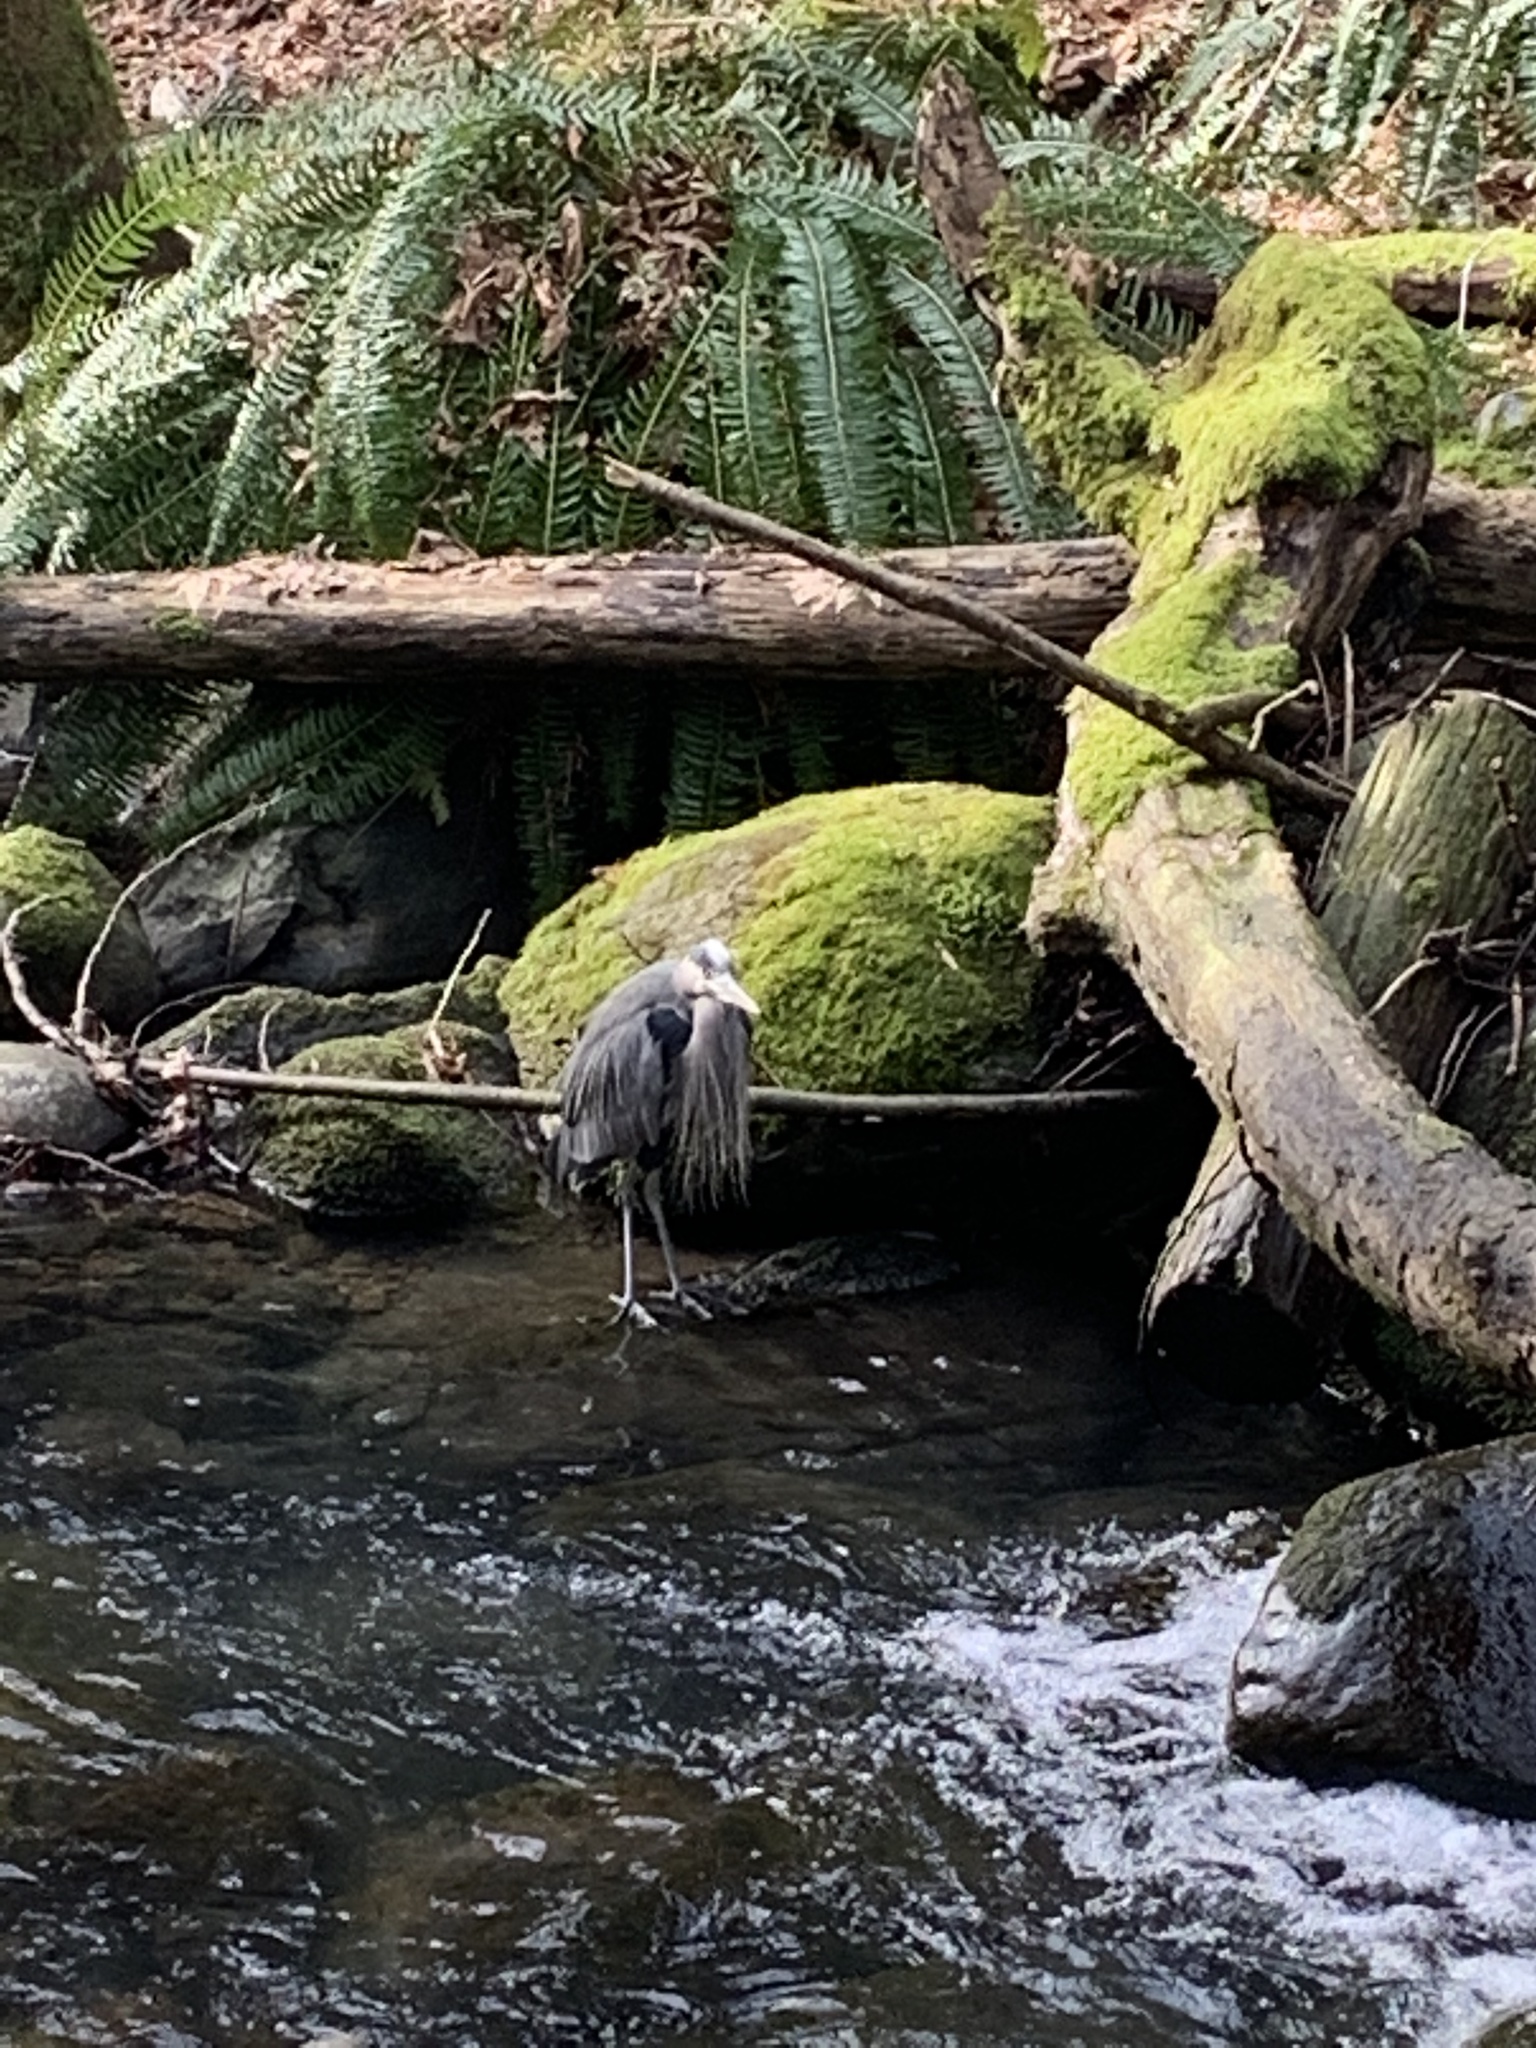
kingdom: Animalia
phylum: Chordata
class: Aves
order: Pelecaniformes
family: Ardeidae
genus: Ardea
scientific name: Ardea herodias
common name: Great blue heron
